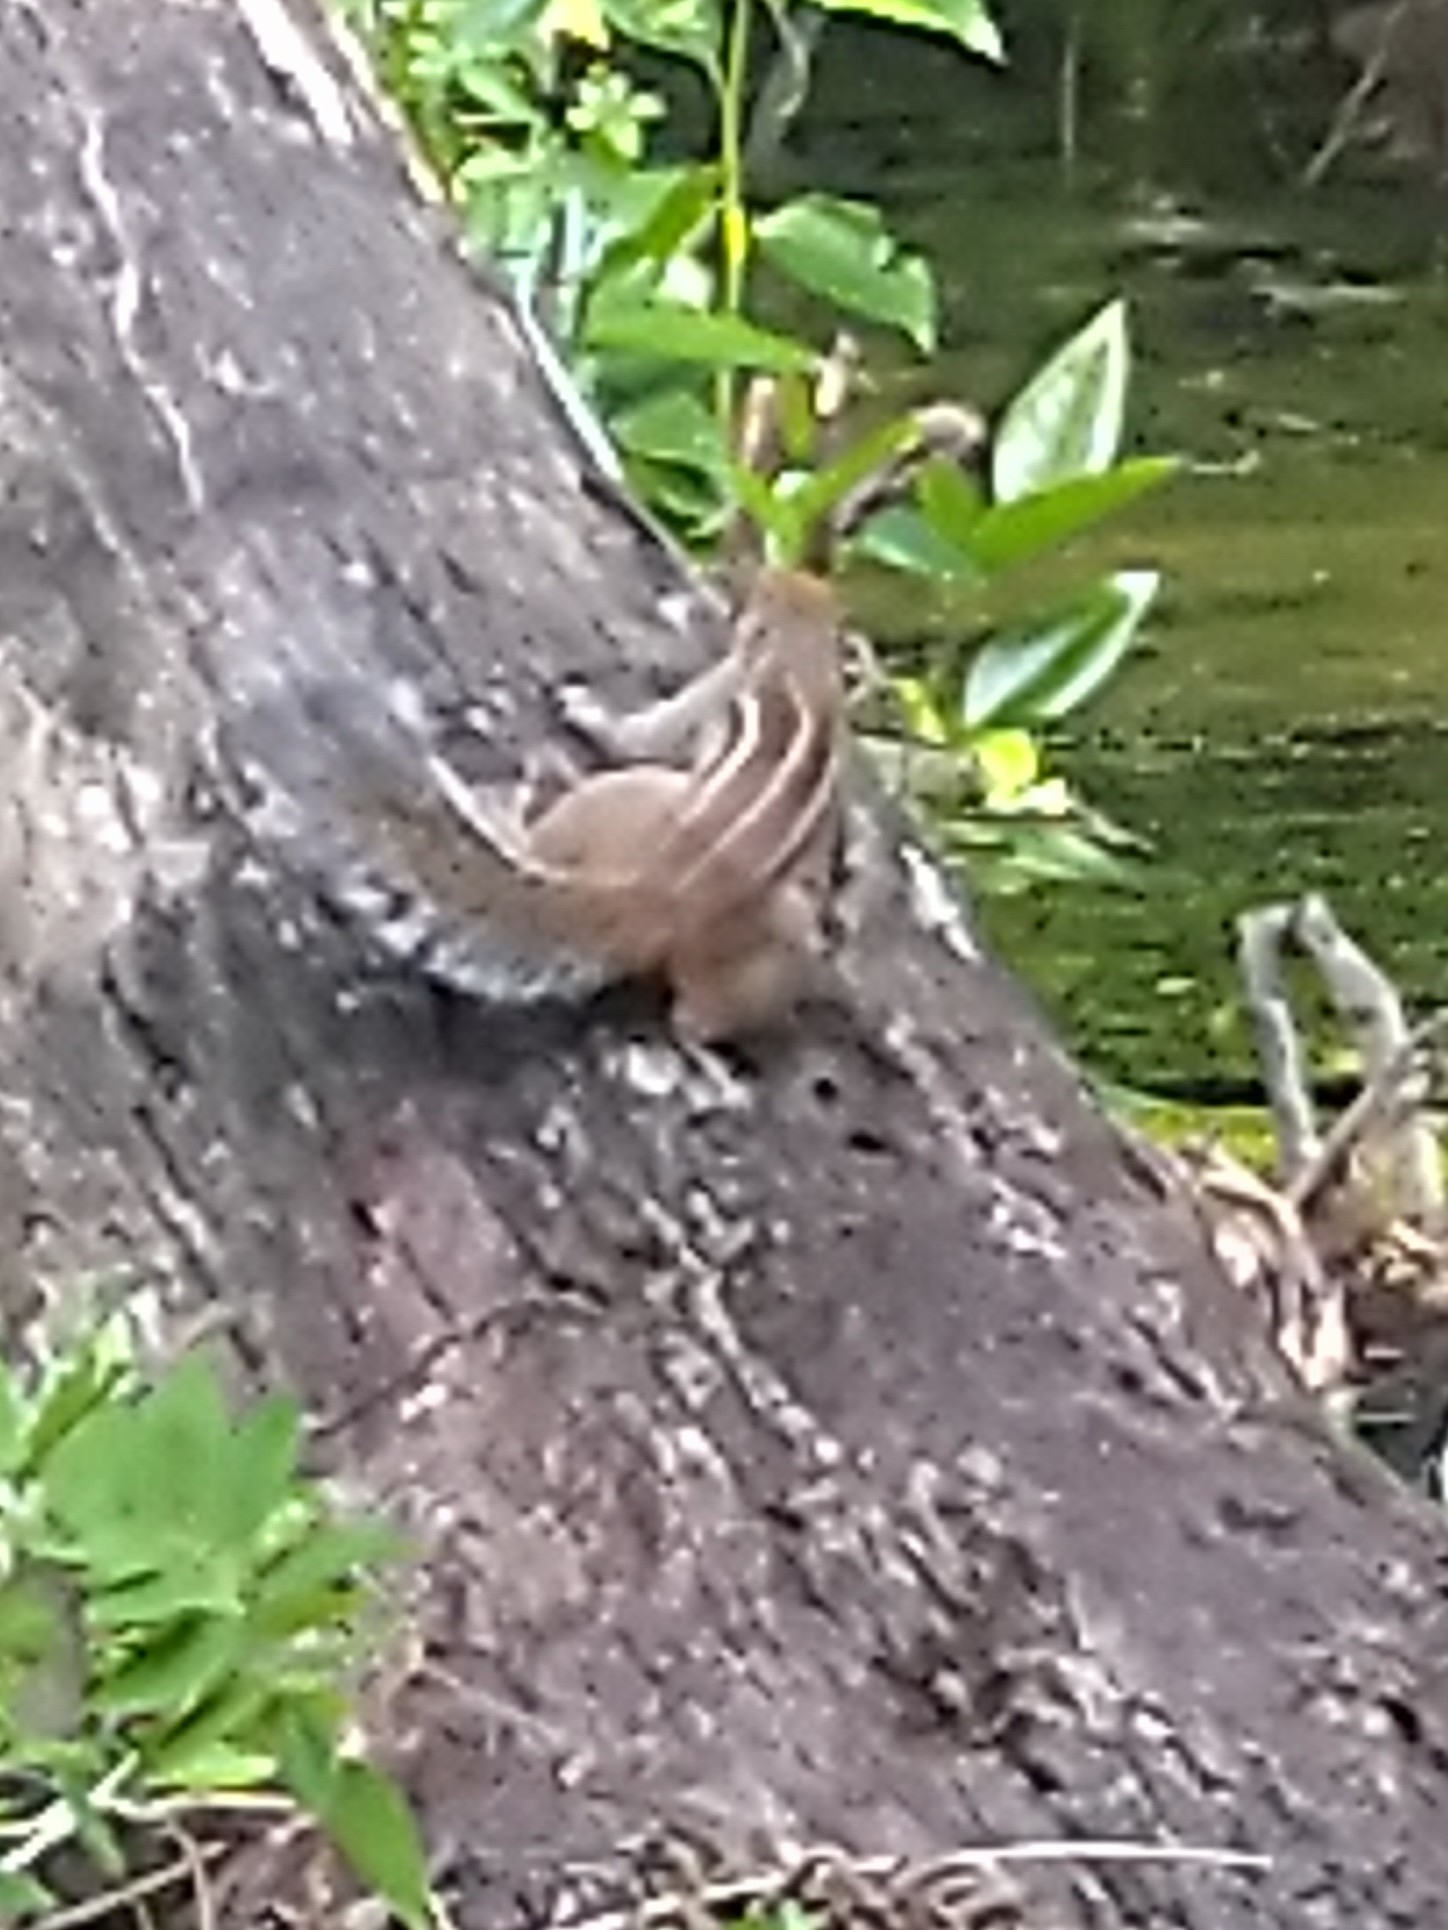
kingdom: Animalia
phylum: Chordata
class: Mammalia
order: Rodentia
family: Sciuridae
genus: Funambulus
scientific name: Funambulus tristriatus
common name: Jungle palm squirrel
